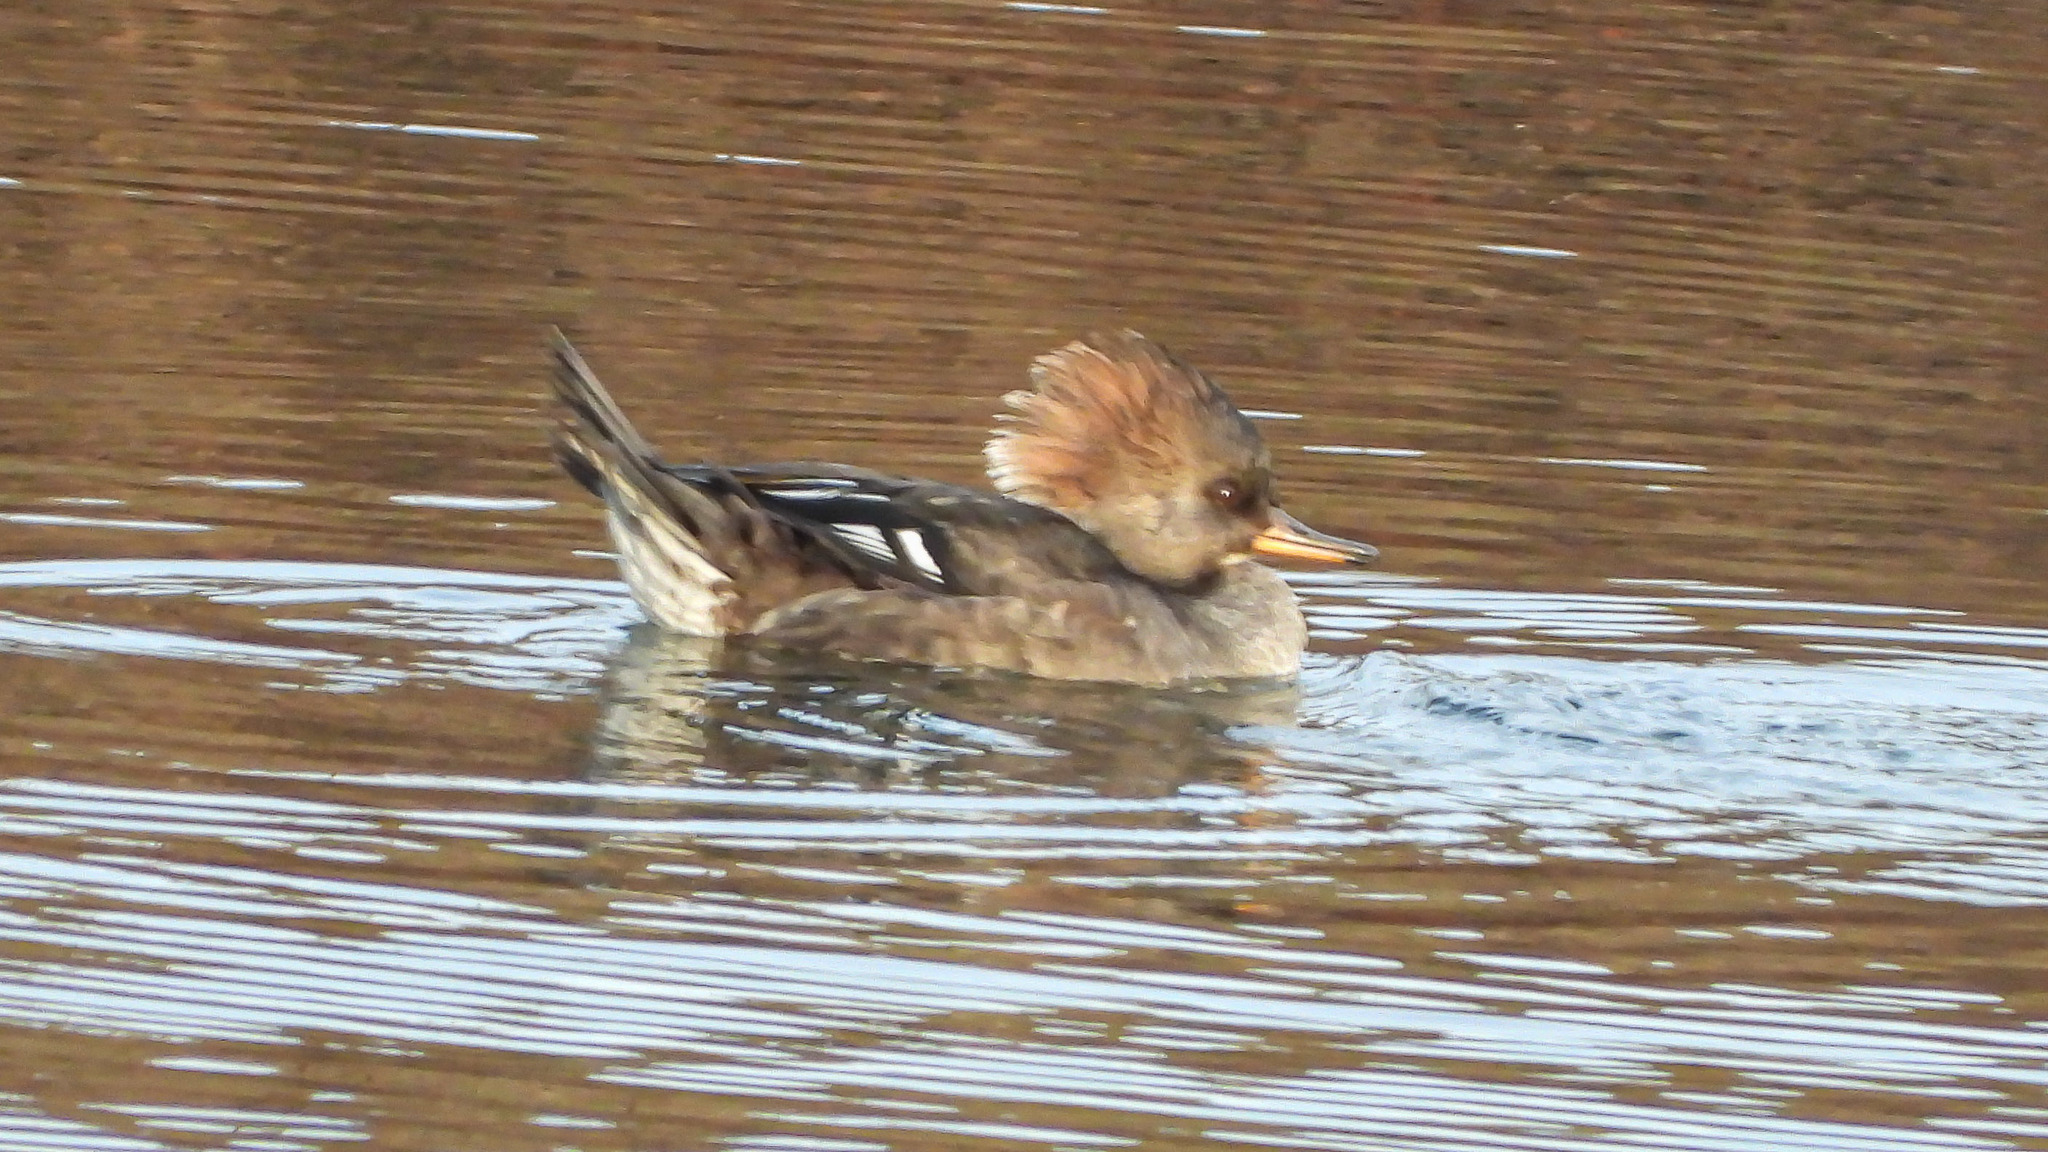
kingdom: Animalia
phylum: Chordata
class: Aves
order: Anseriformes
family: Anatidae
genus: Lophodytes
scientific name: Lophodytes cucullatus
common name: Hooded merganser
